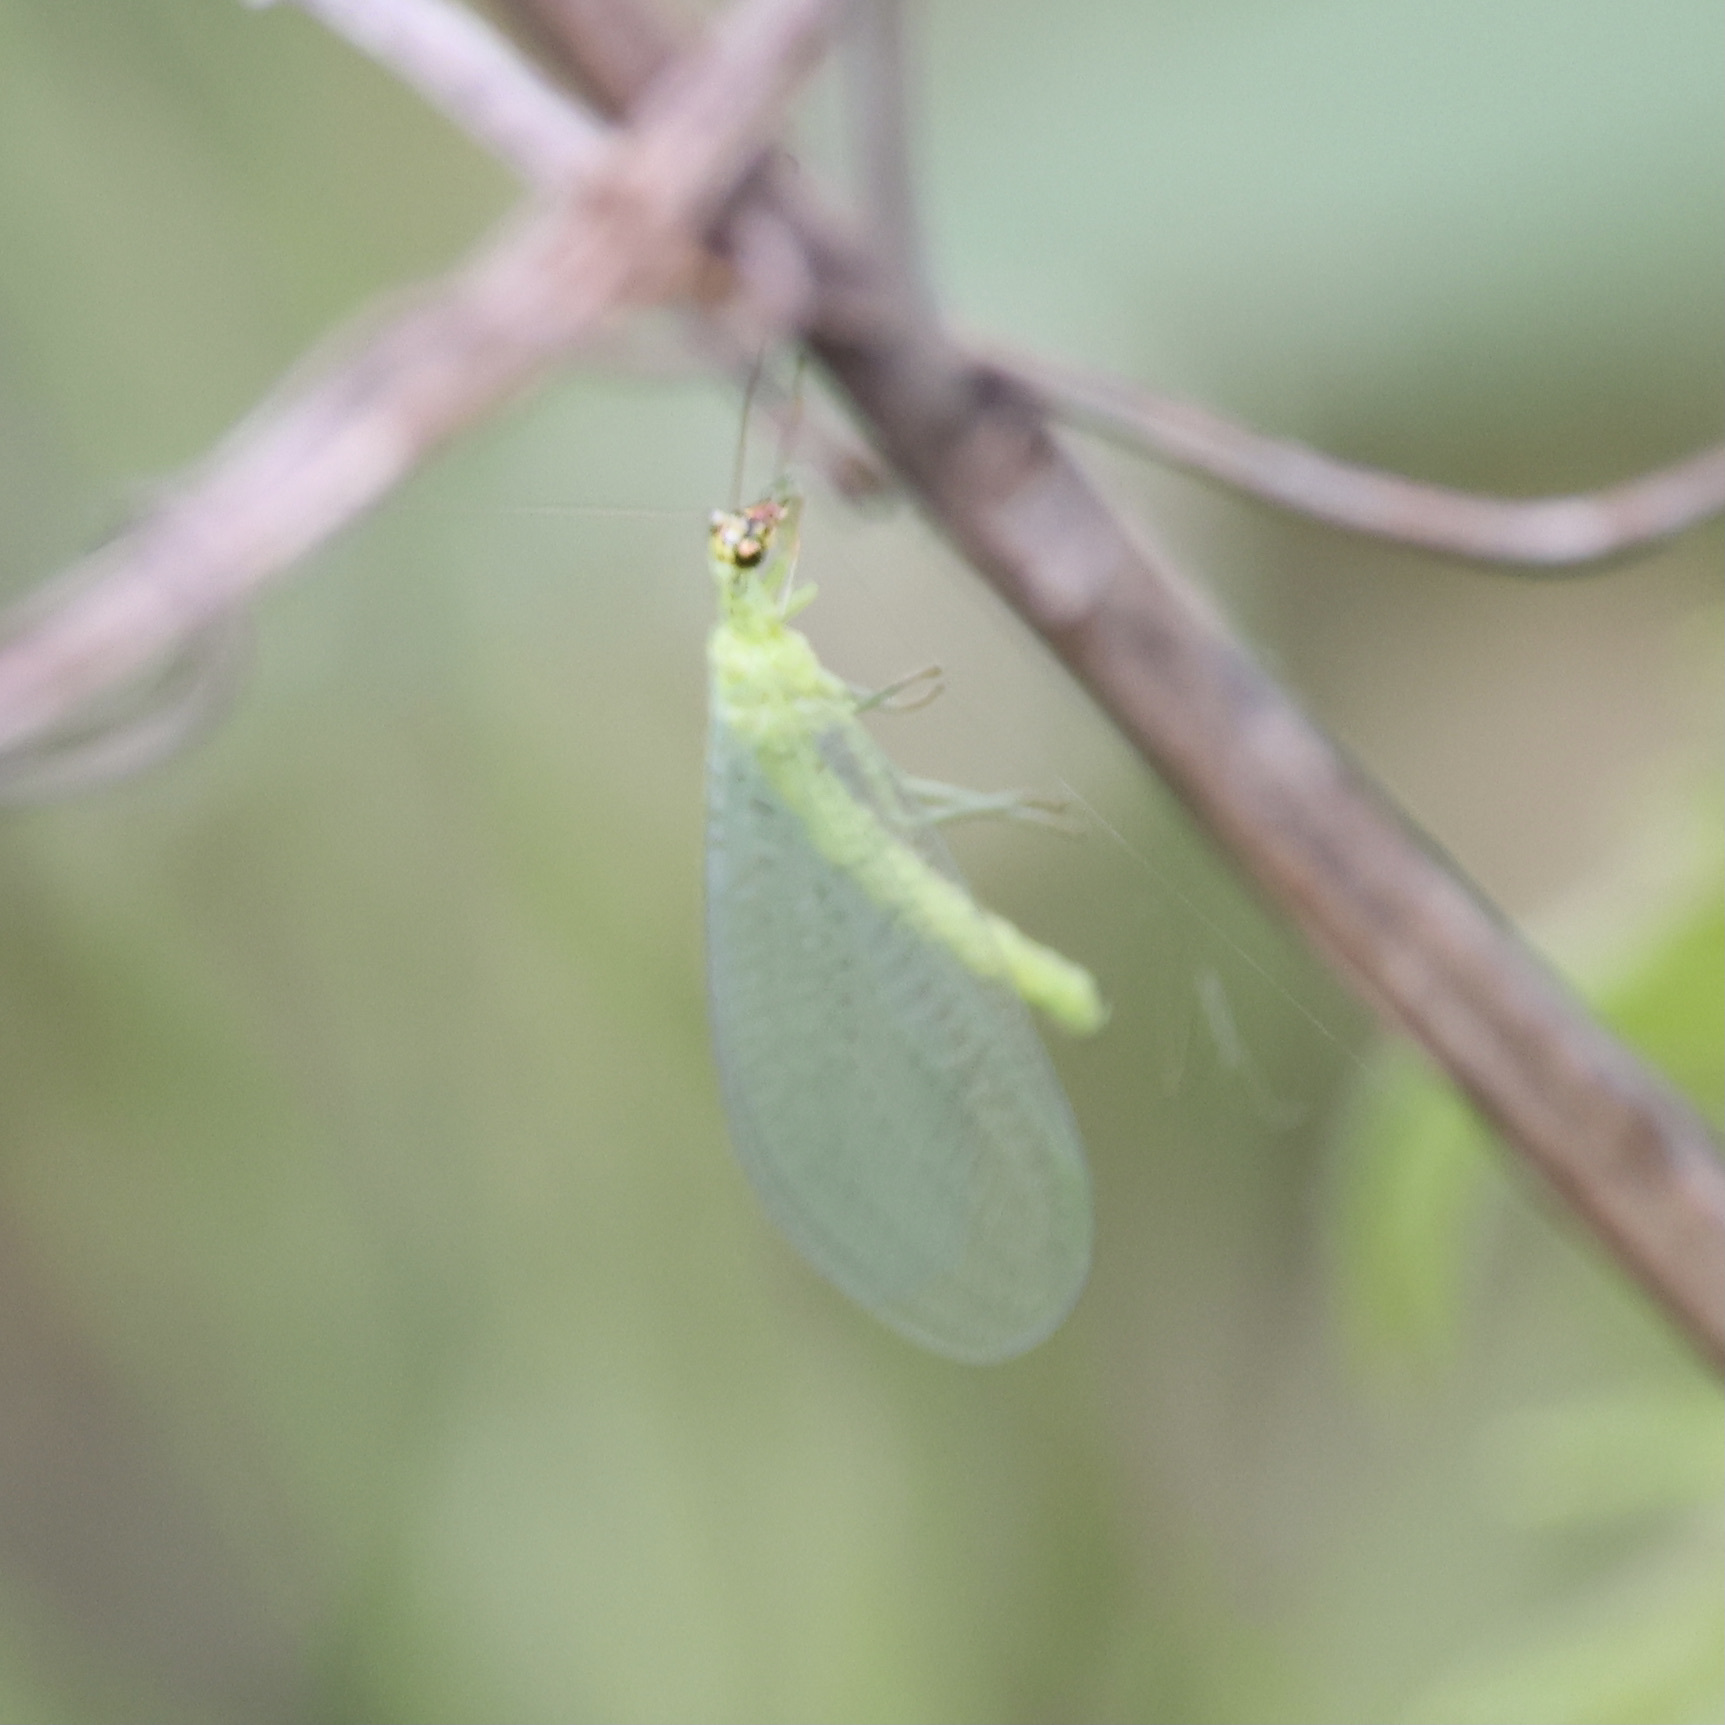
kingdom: Animalia
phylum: Arthropoda
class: Insecta
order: Neuroptera
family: Chrysopidae
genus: Chrysopa
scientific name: Chrysopa oculata
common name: Golden-eyed lacewing
